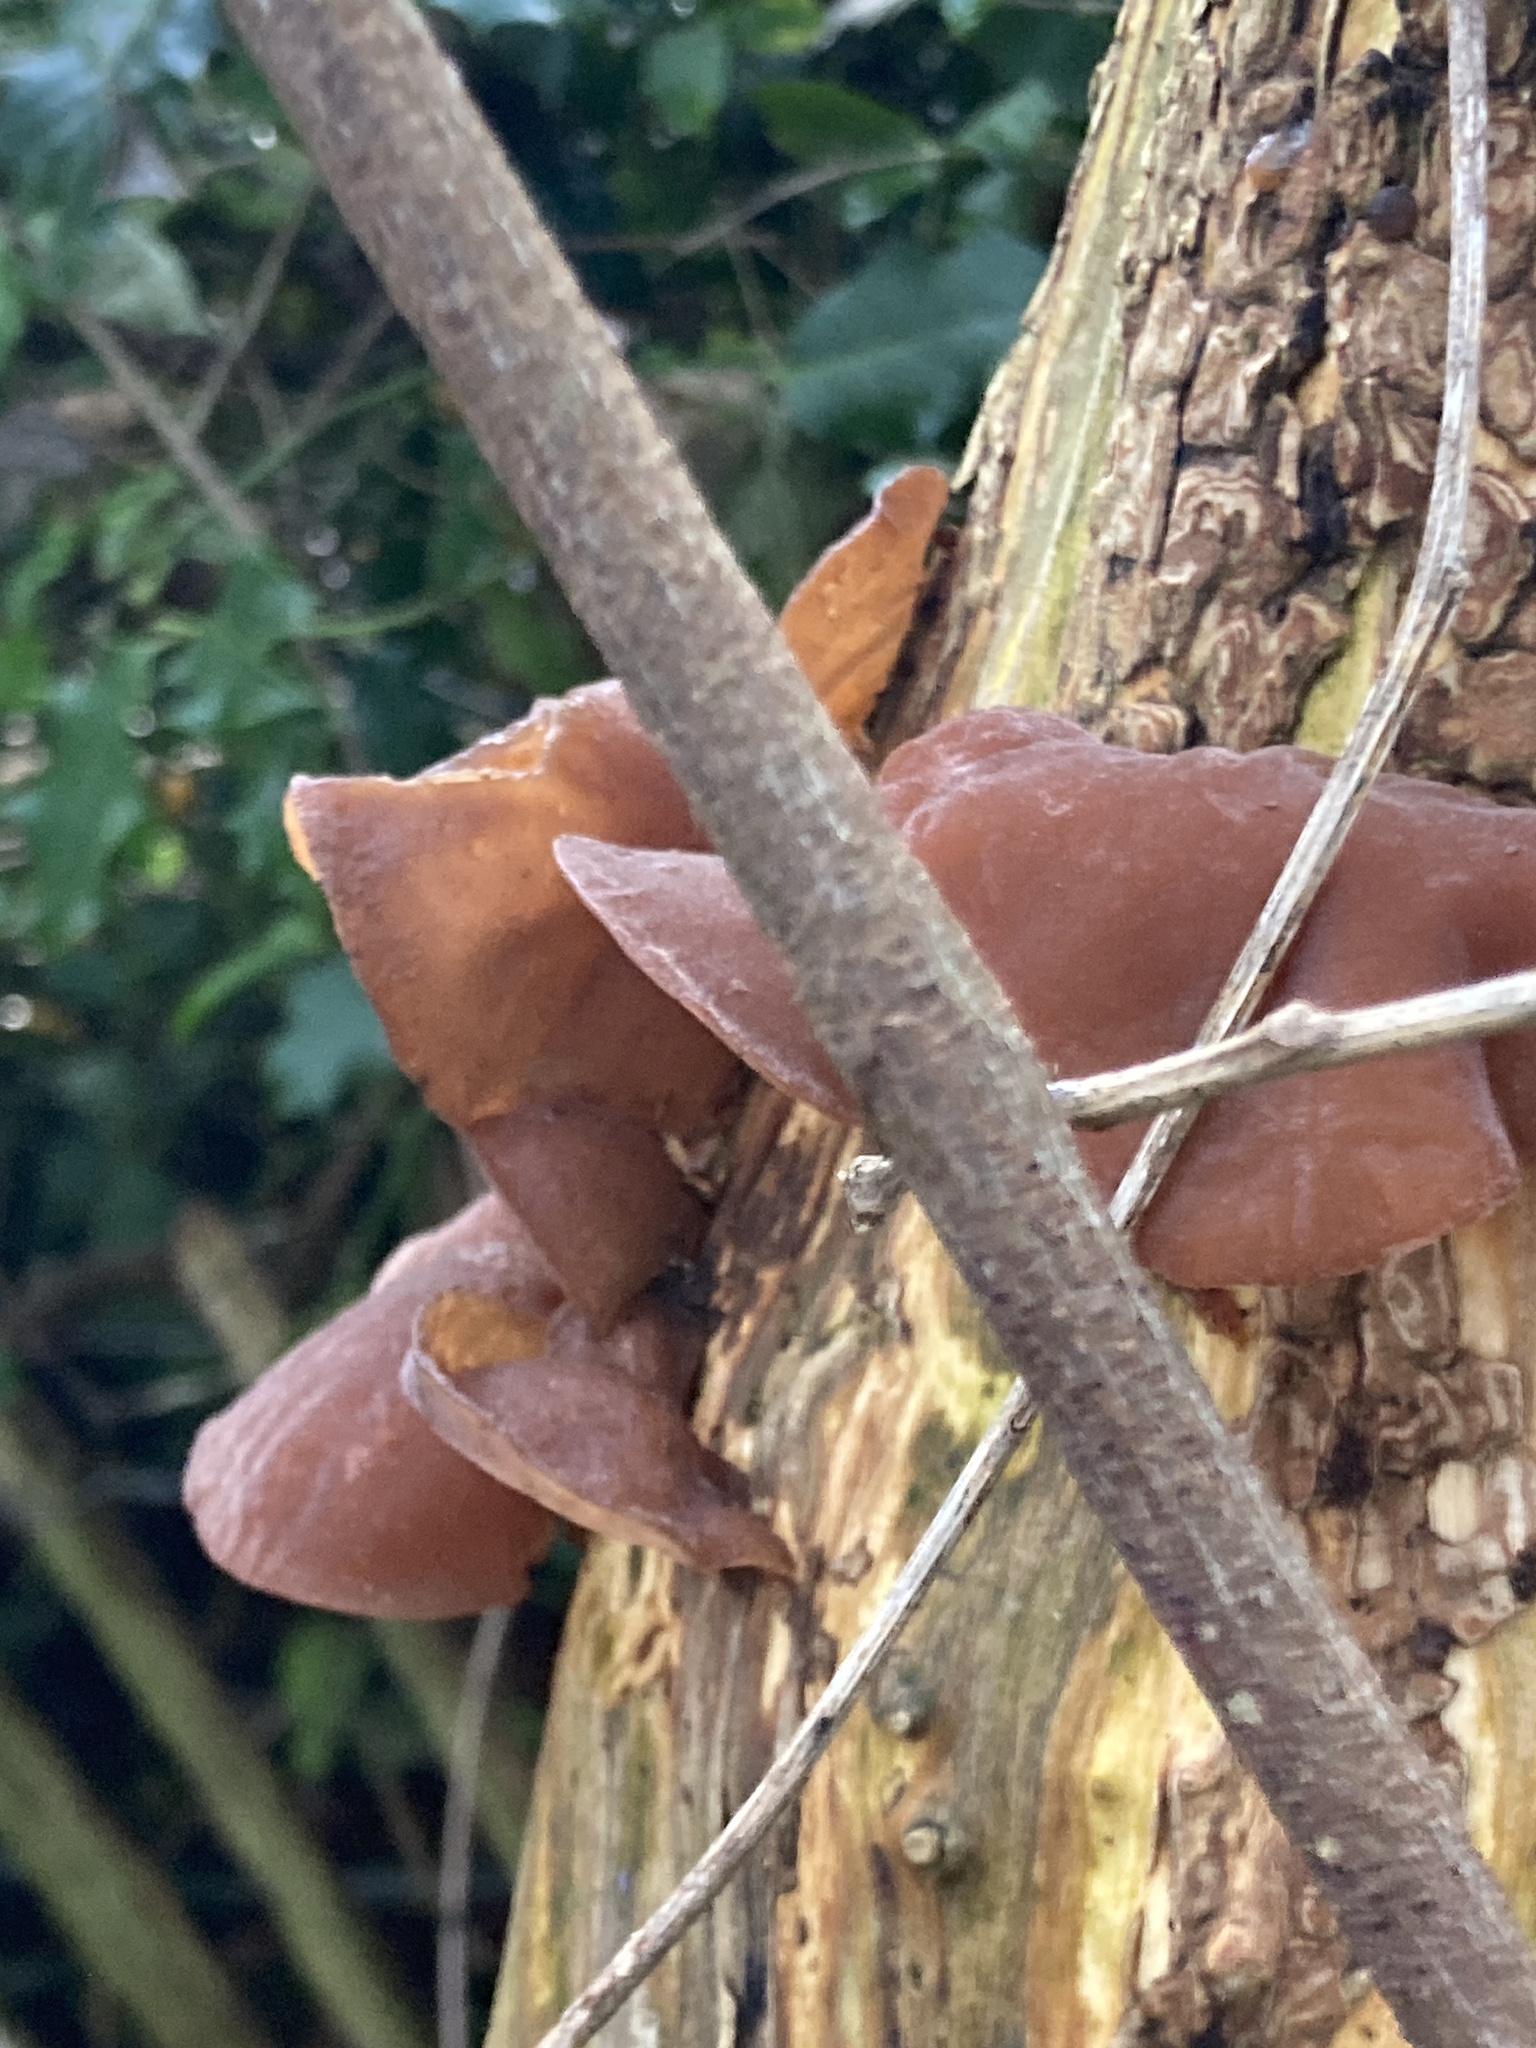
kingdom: Fungi
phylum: Basidiomycota
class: Agaricomycetes
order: Auriculariales
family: Auriculariaceae
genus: Auricularia
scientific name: Auricularia auricula-judae
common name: Jelly ear
